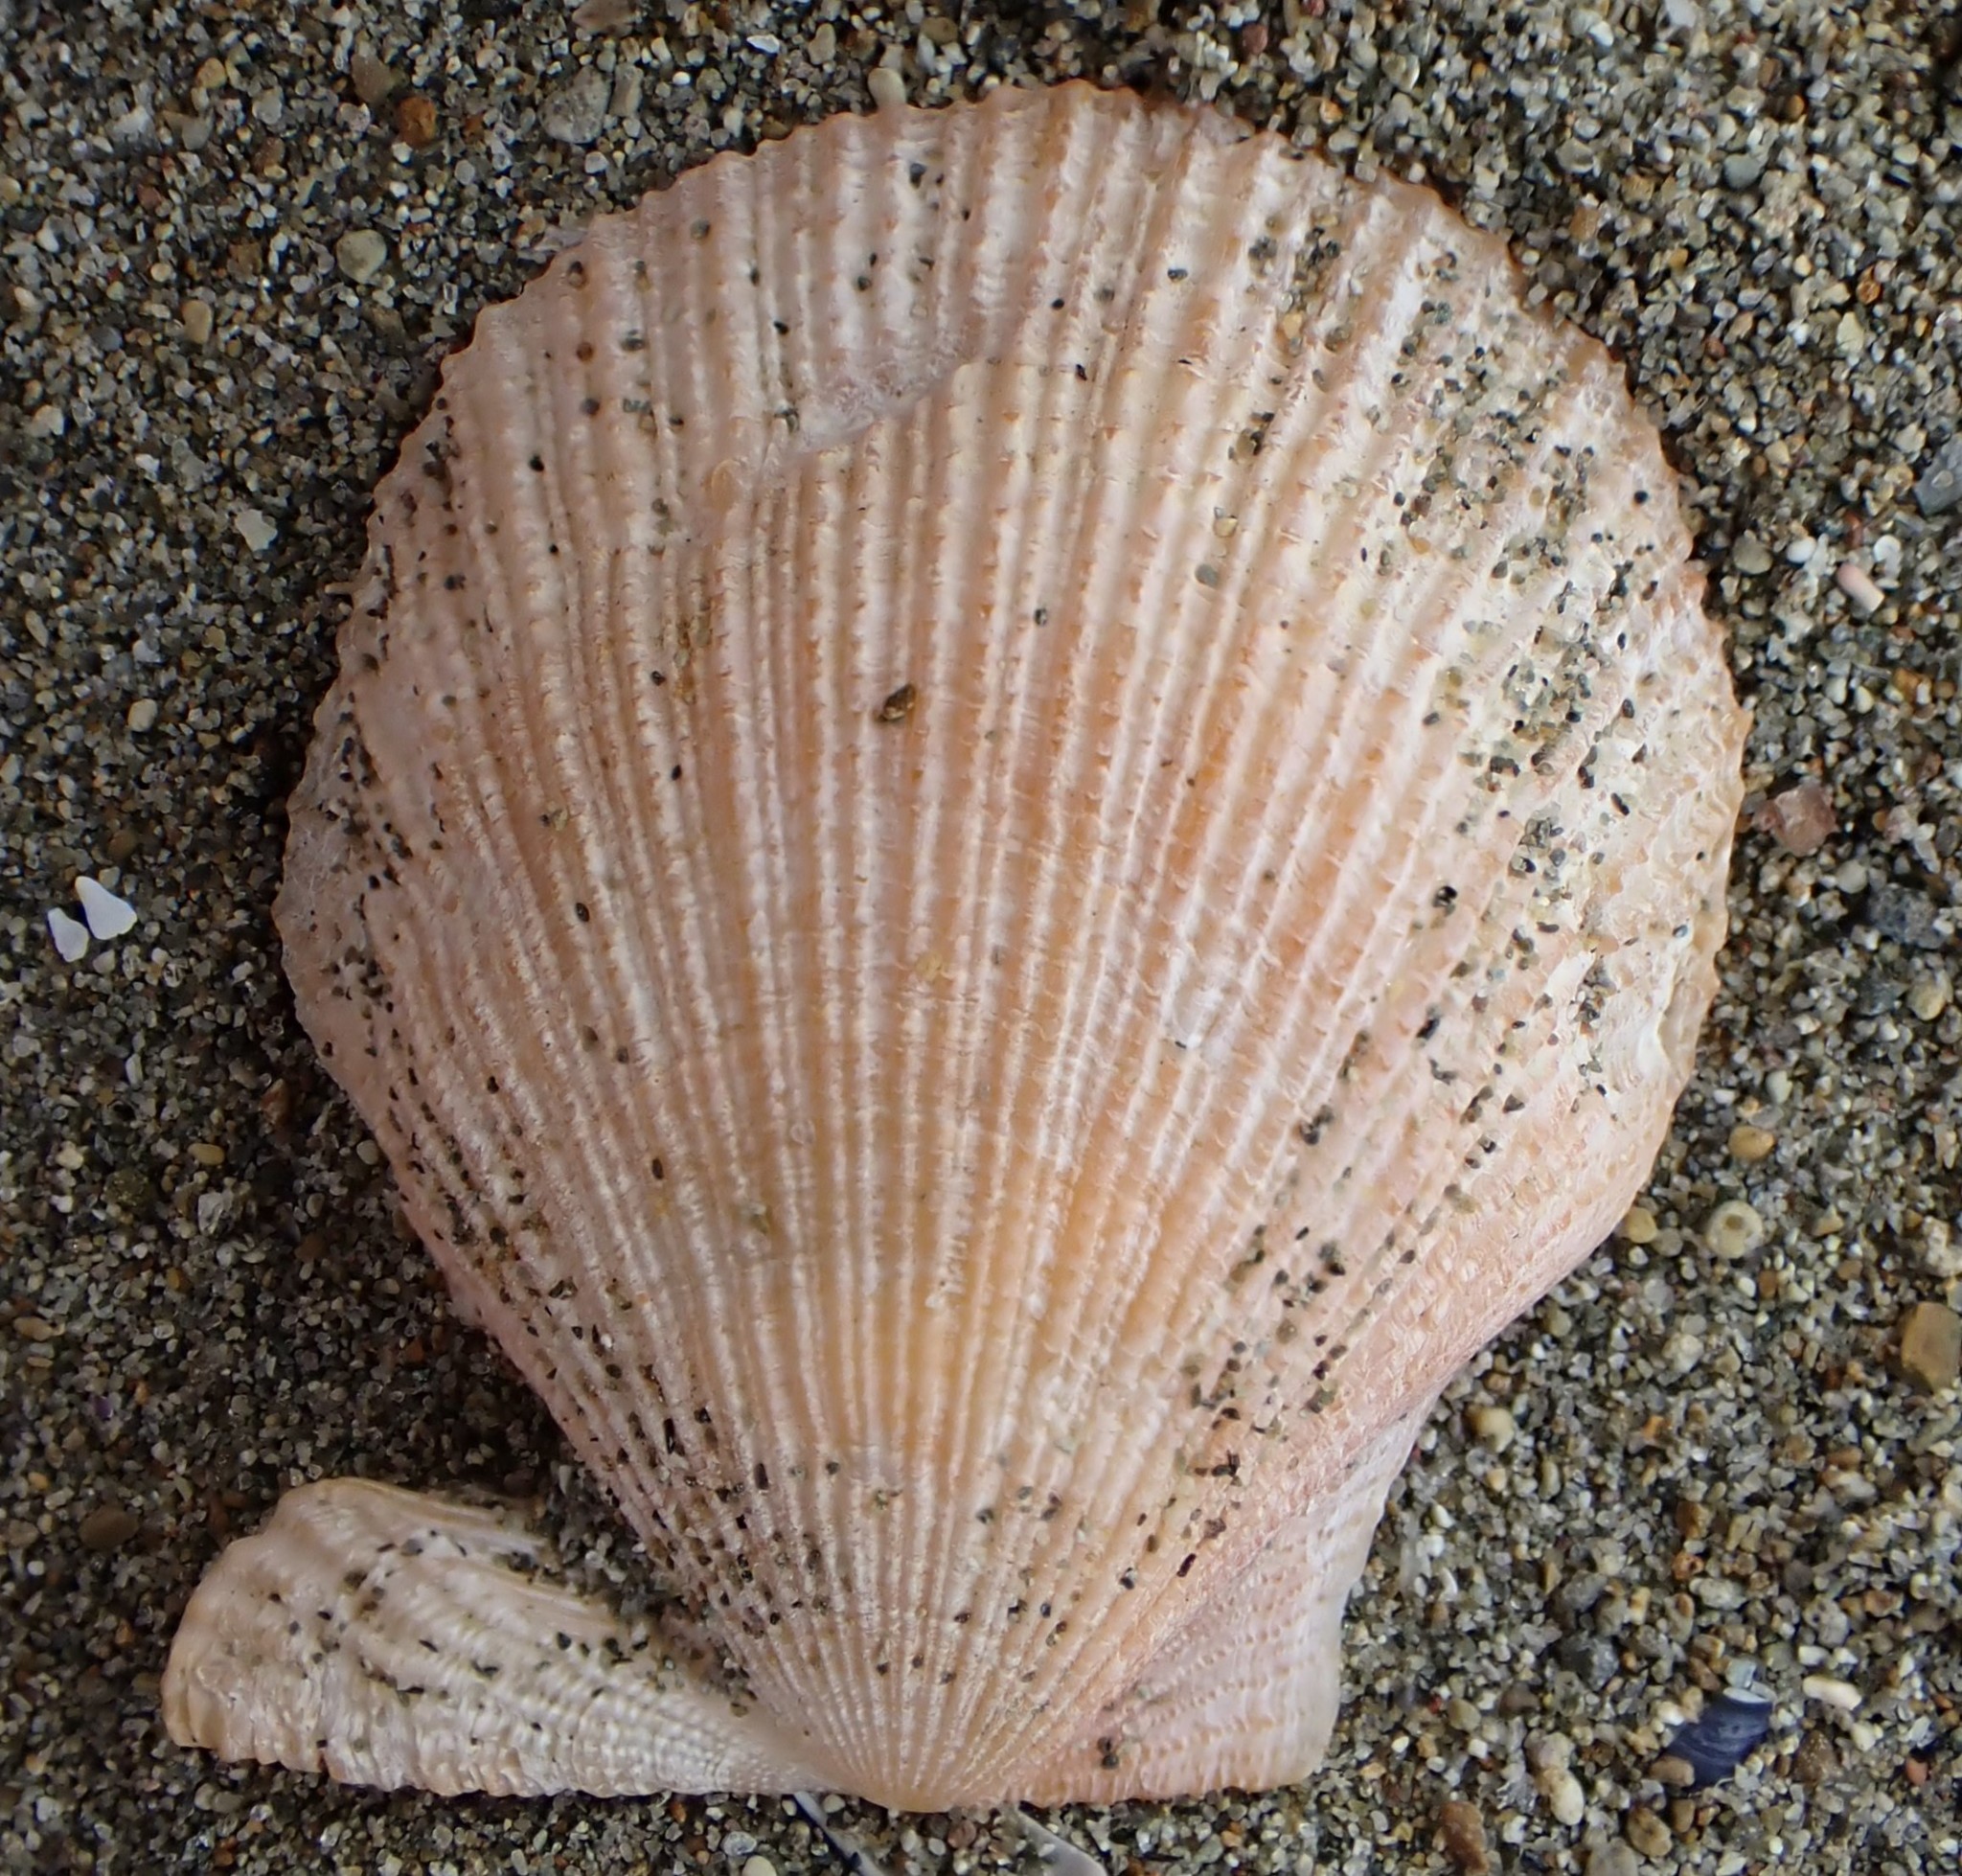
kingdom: Animalia
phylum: Mollusca
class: Bivalvia
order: Pectinida
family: Pectinidae
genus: Talochlamys
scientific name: Talochlamys zelandiae
